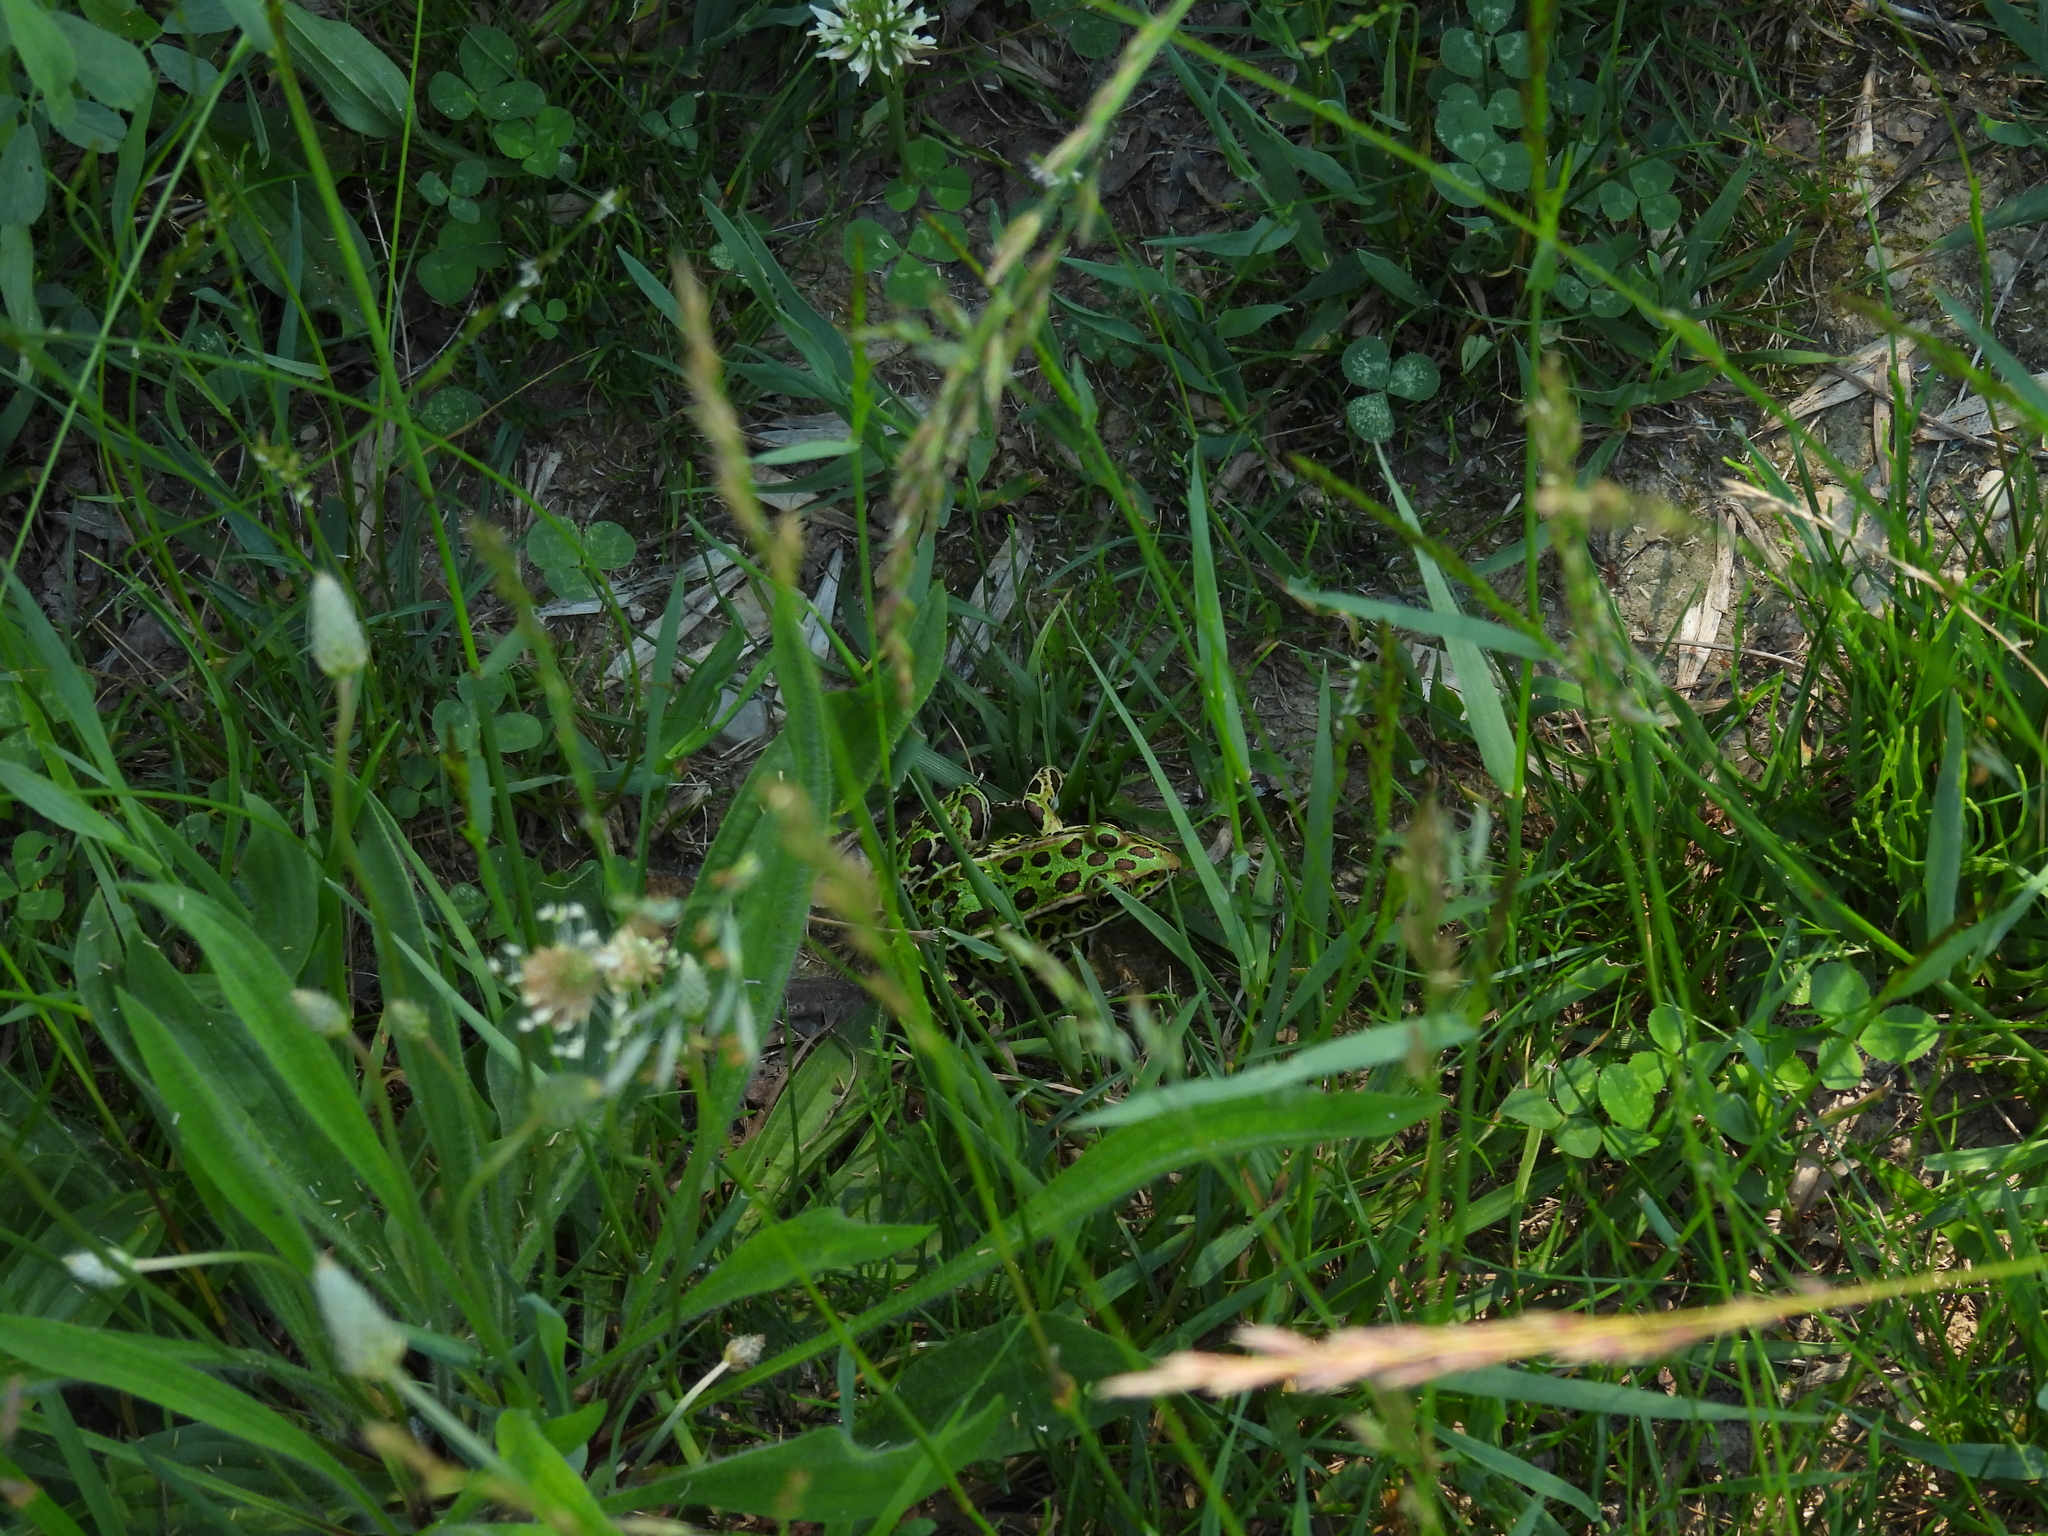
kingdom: Animalia
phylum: Chordata
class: Amphibia
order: Anura
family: Ranidae
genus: Lithobates
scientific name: Lithobates pipiens
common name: Northern leopard frog
